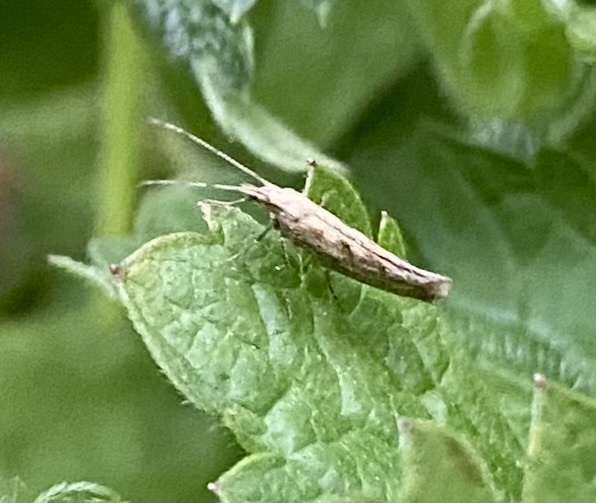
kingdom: Animalia
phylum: Arthropoda
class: Insecta
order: Lepidoptera
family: Plutellidae
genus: Plutella
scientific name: Plutella xylostella
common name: Diamond-back moth
